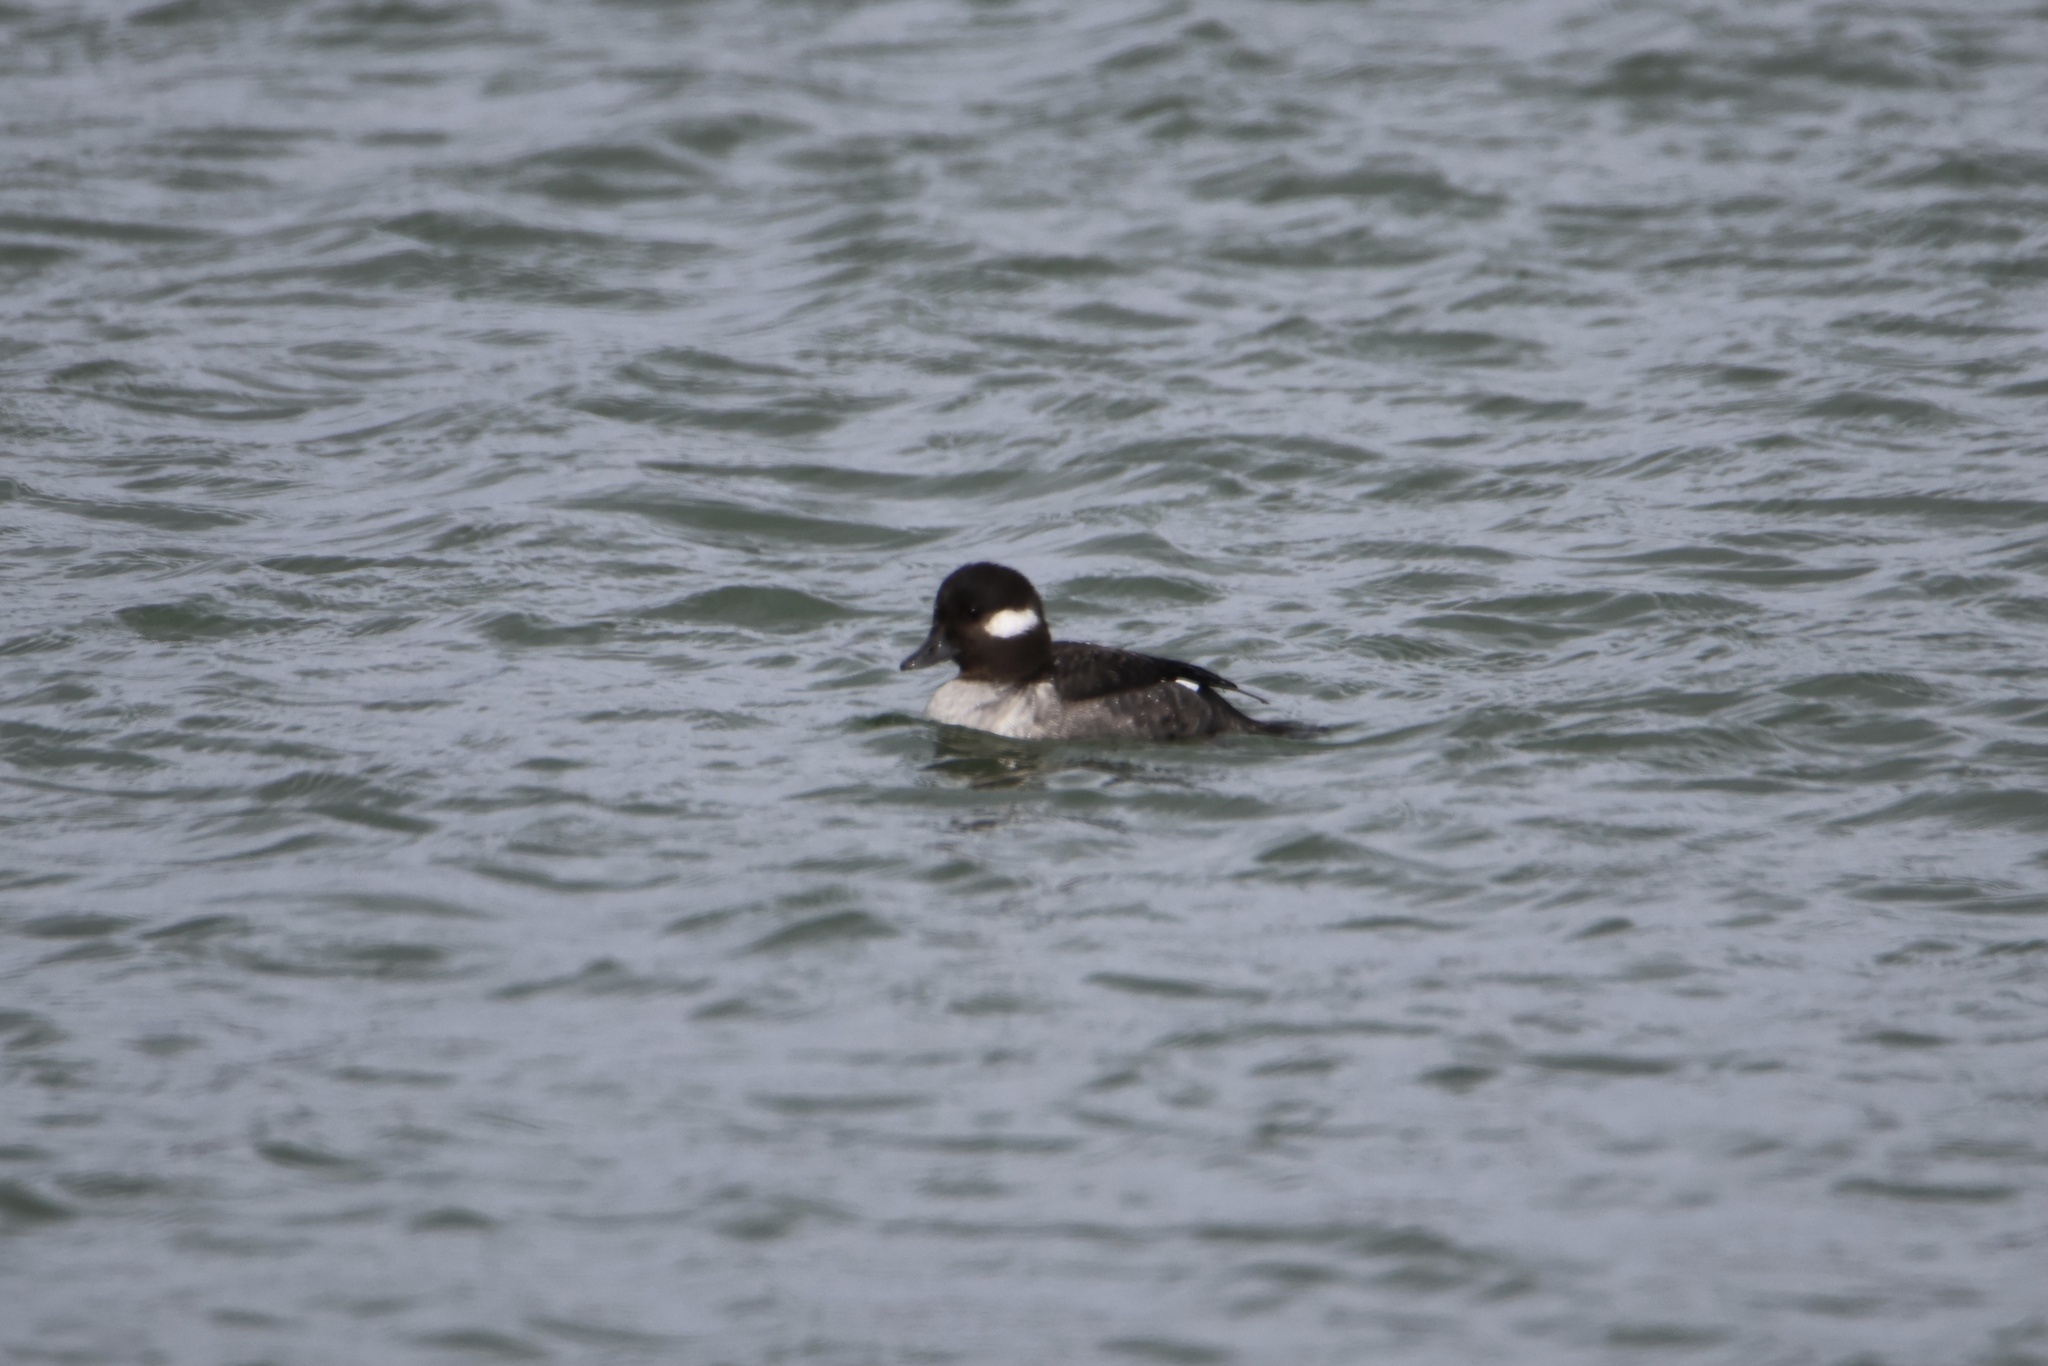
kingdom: Animalia
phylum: Chordata
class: Aves
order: Anseriformes
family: Anatidae
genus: Bucephala
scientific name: Bucephala albeola
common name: Bufflehead
